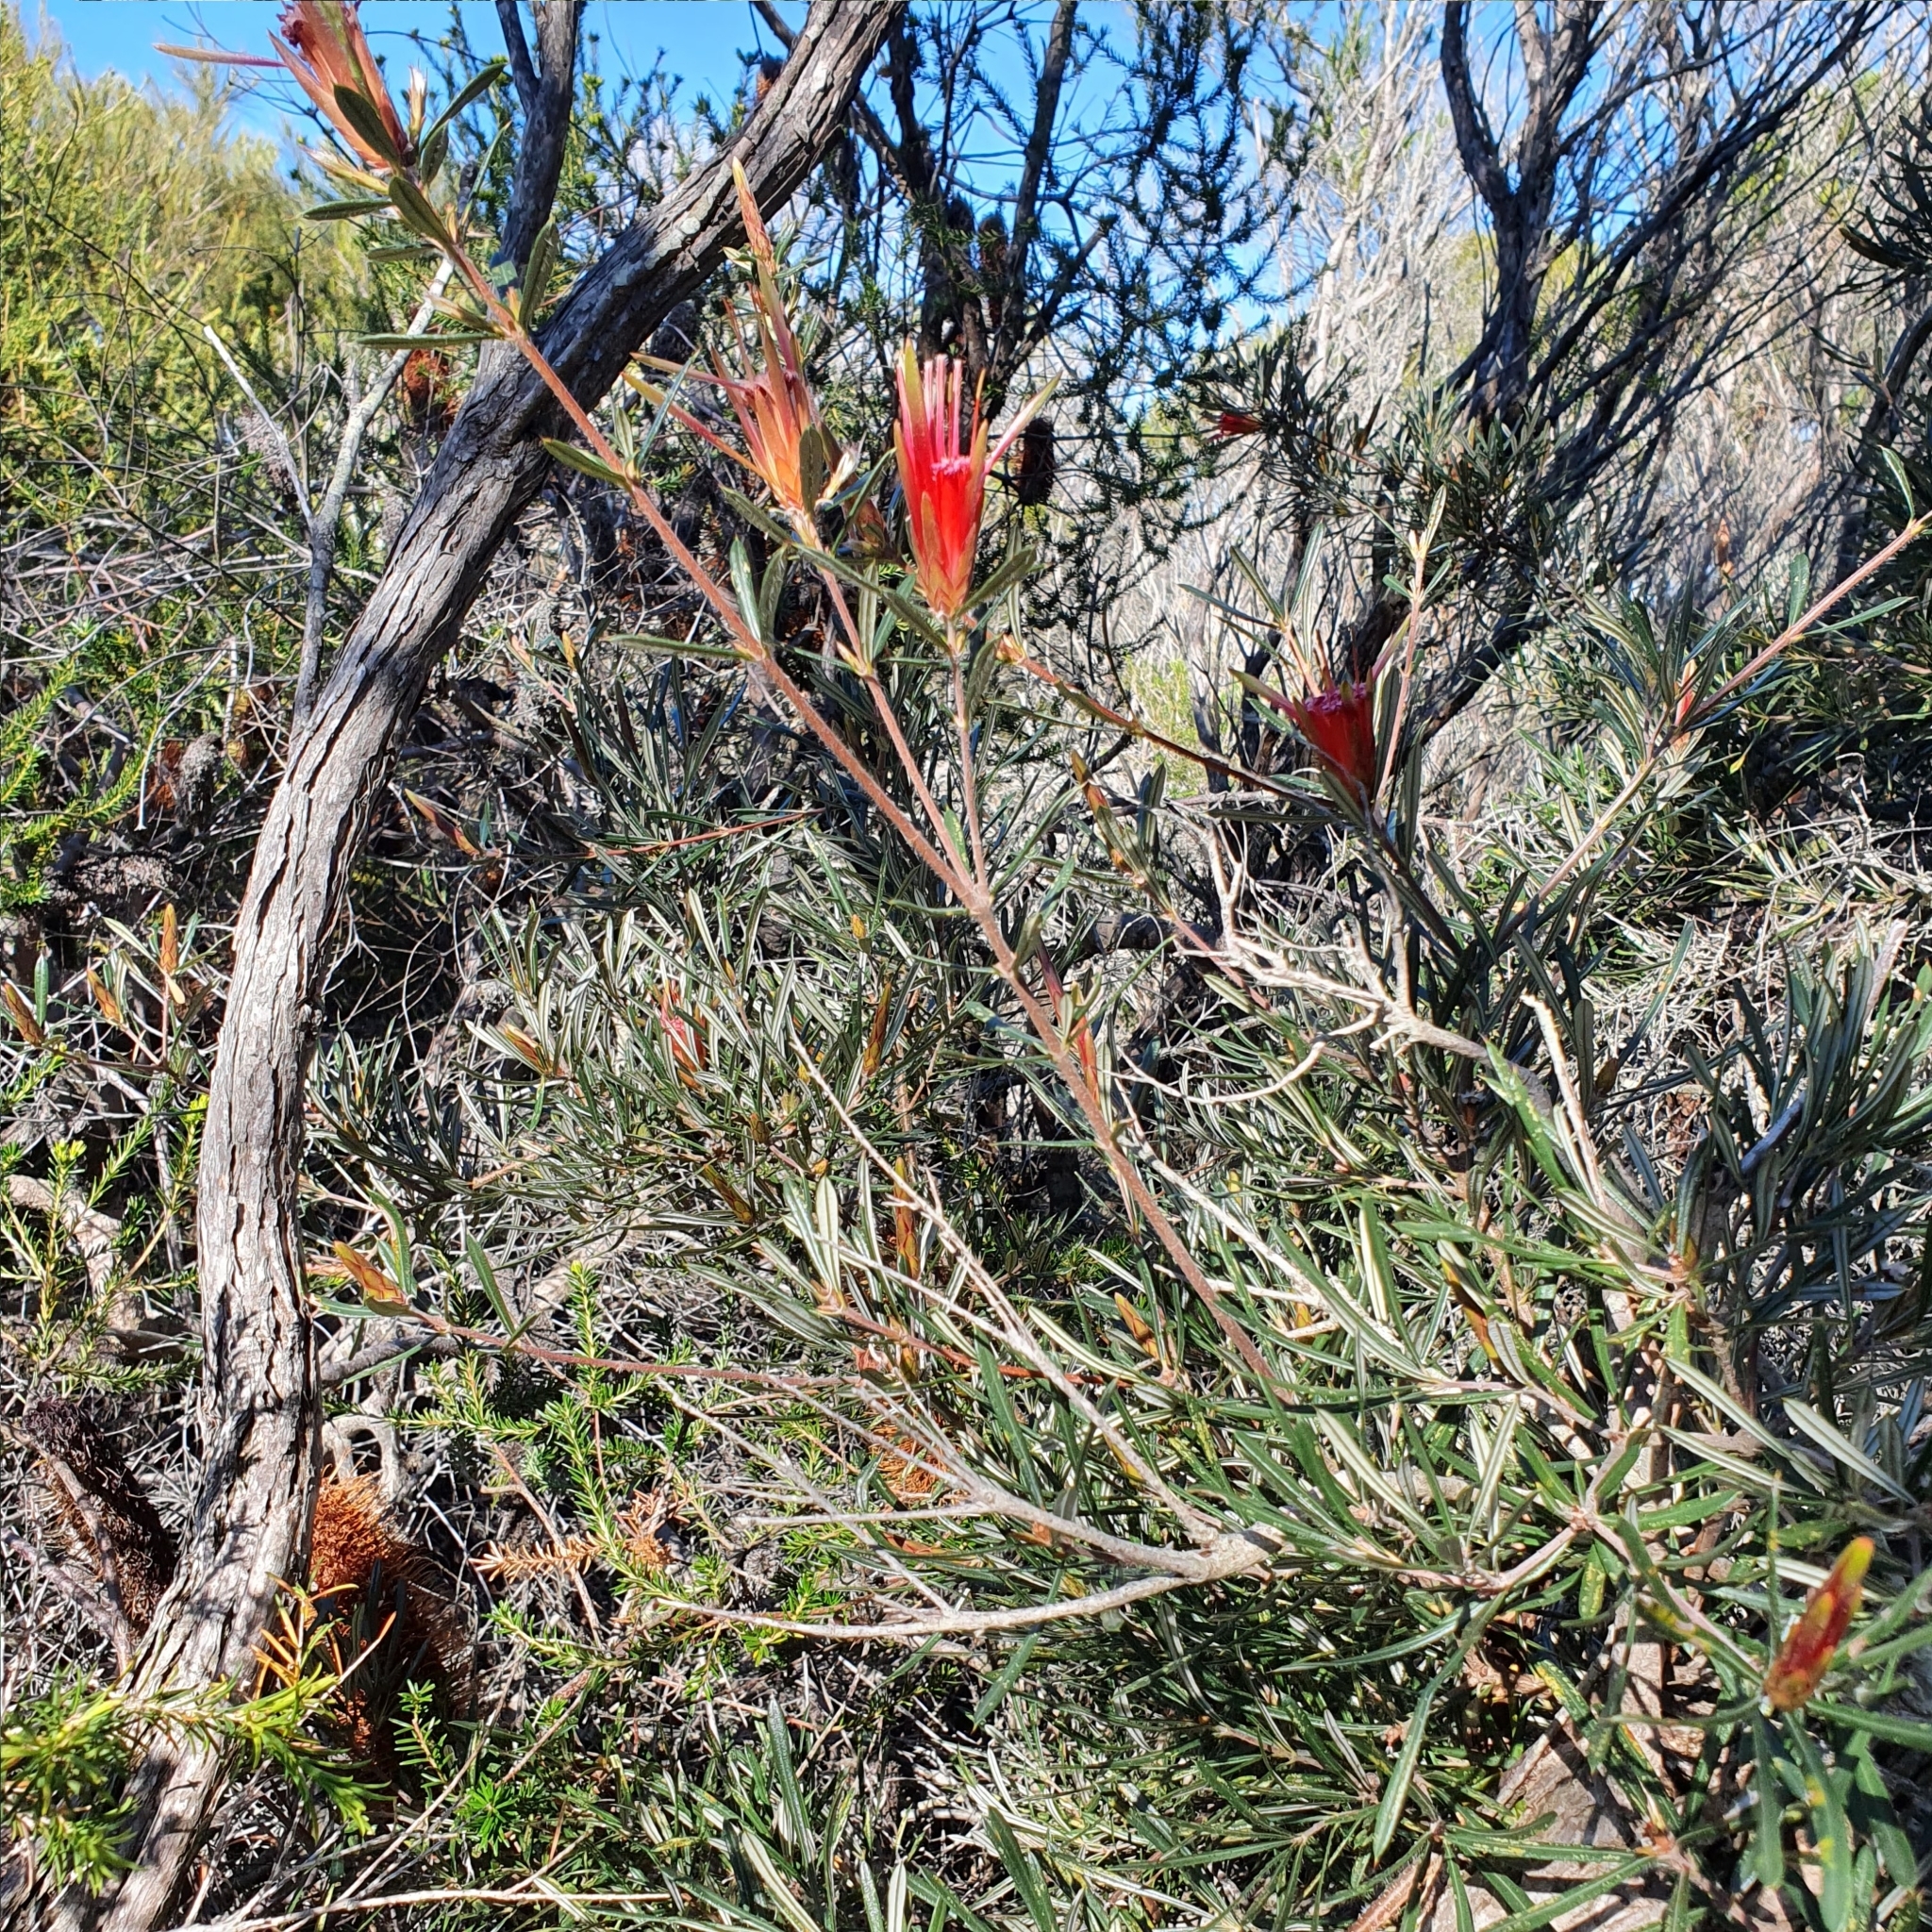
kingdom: Plantae
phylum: Tracheophyta
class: Magnoliopsida
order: Proteales
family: Proteaceae
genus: Lambertia
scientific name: Lambertia formosa
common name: Mountain-devil
